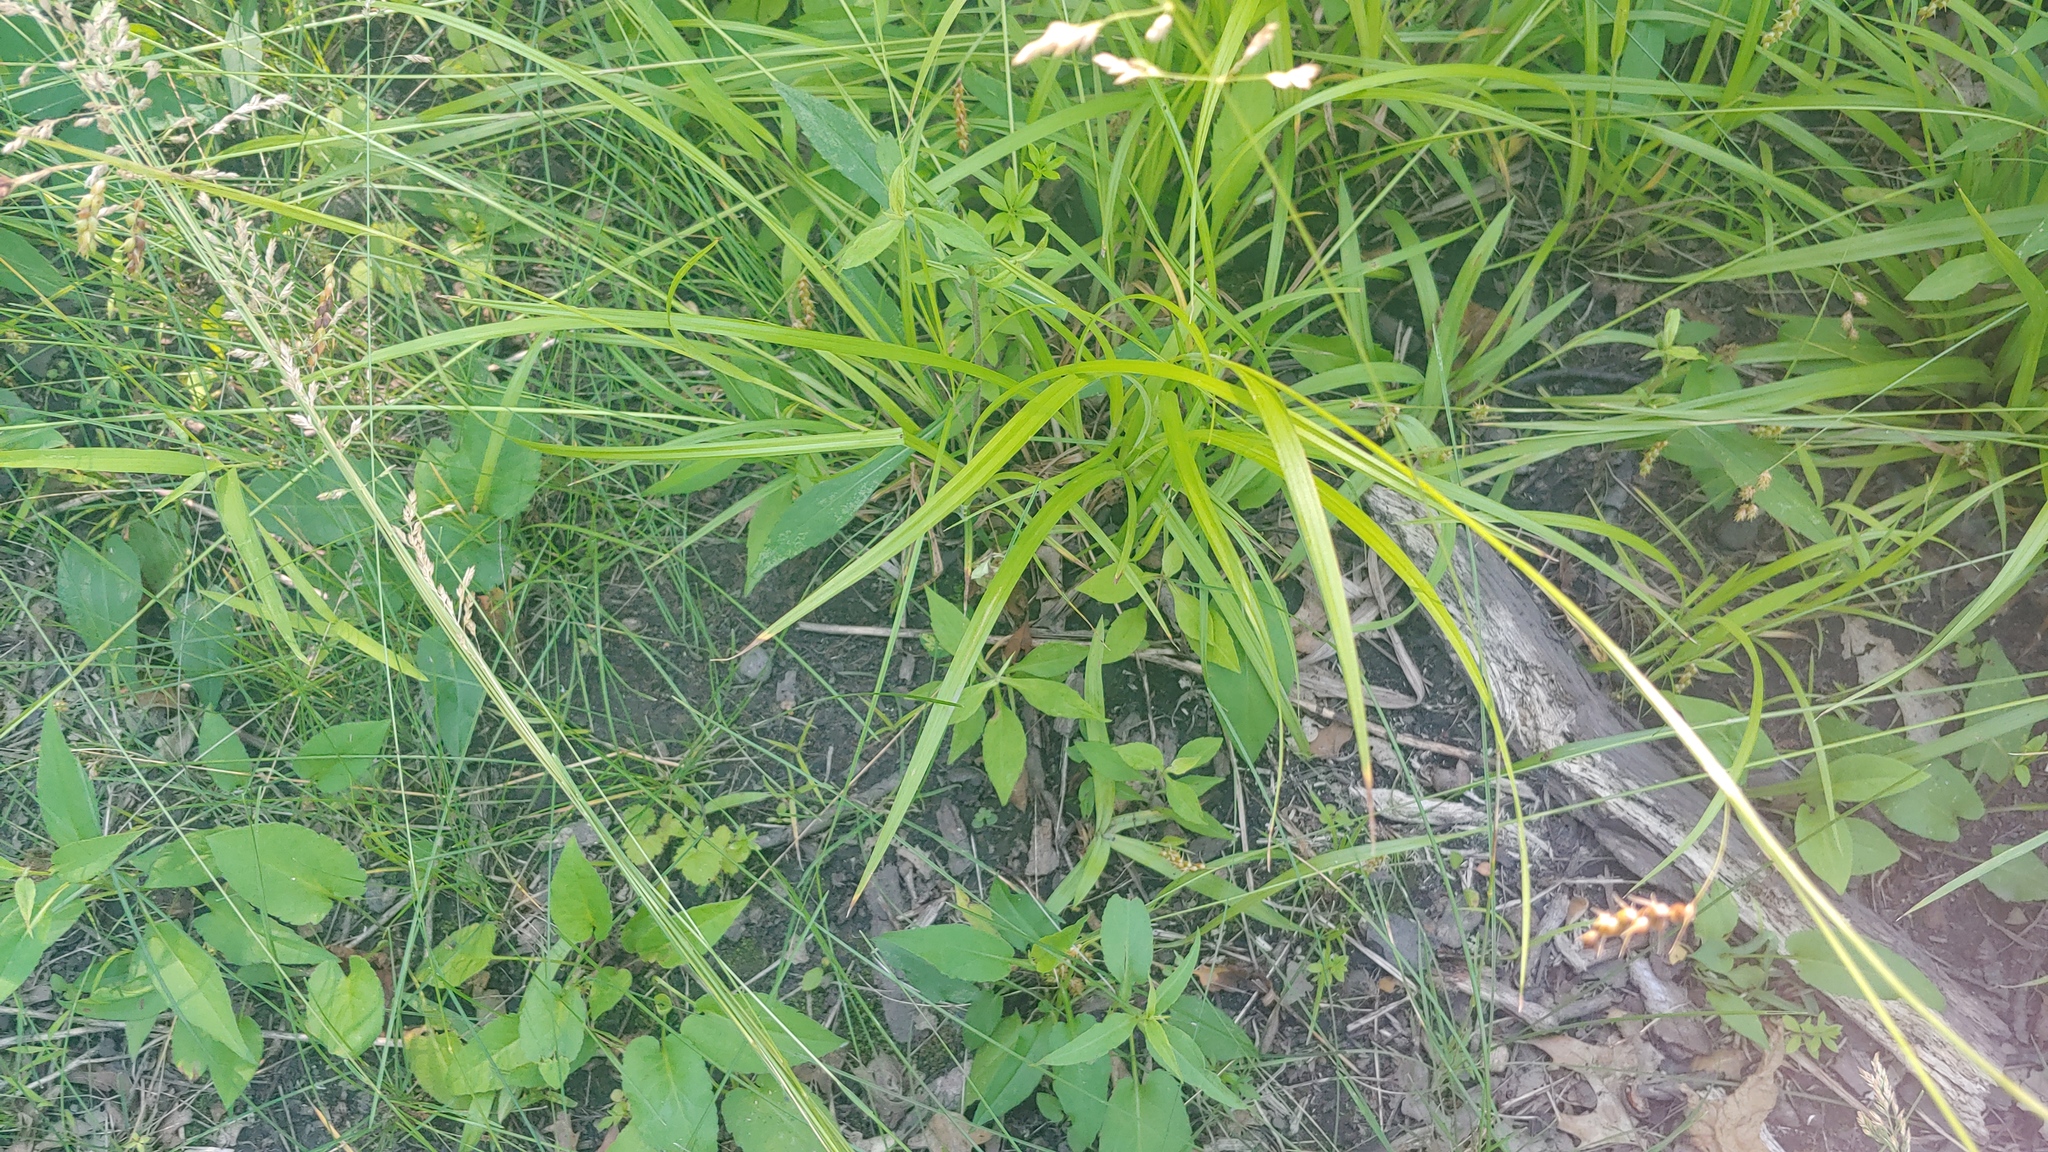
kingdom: Plantae
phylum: Tracheophyta
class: Liliopsida
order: Poales
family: Cyperaceae
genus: Carex
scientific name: Carex davisii
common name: Davis' sedge
